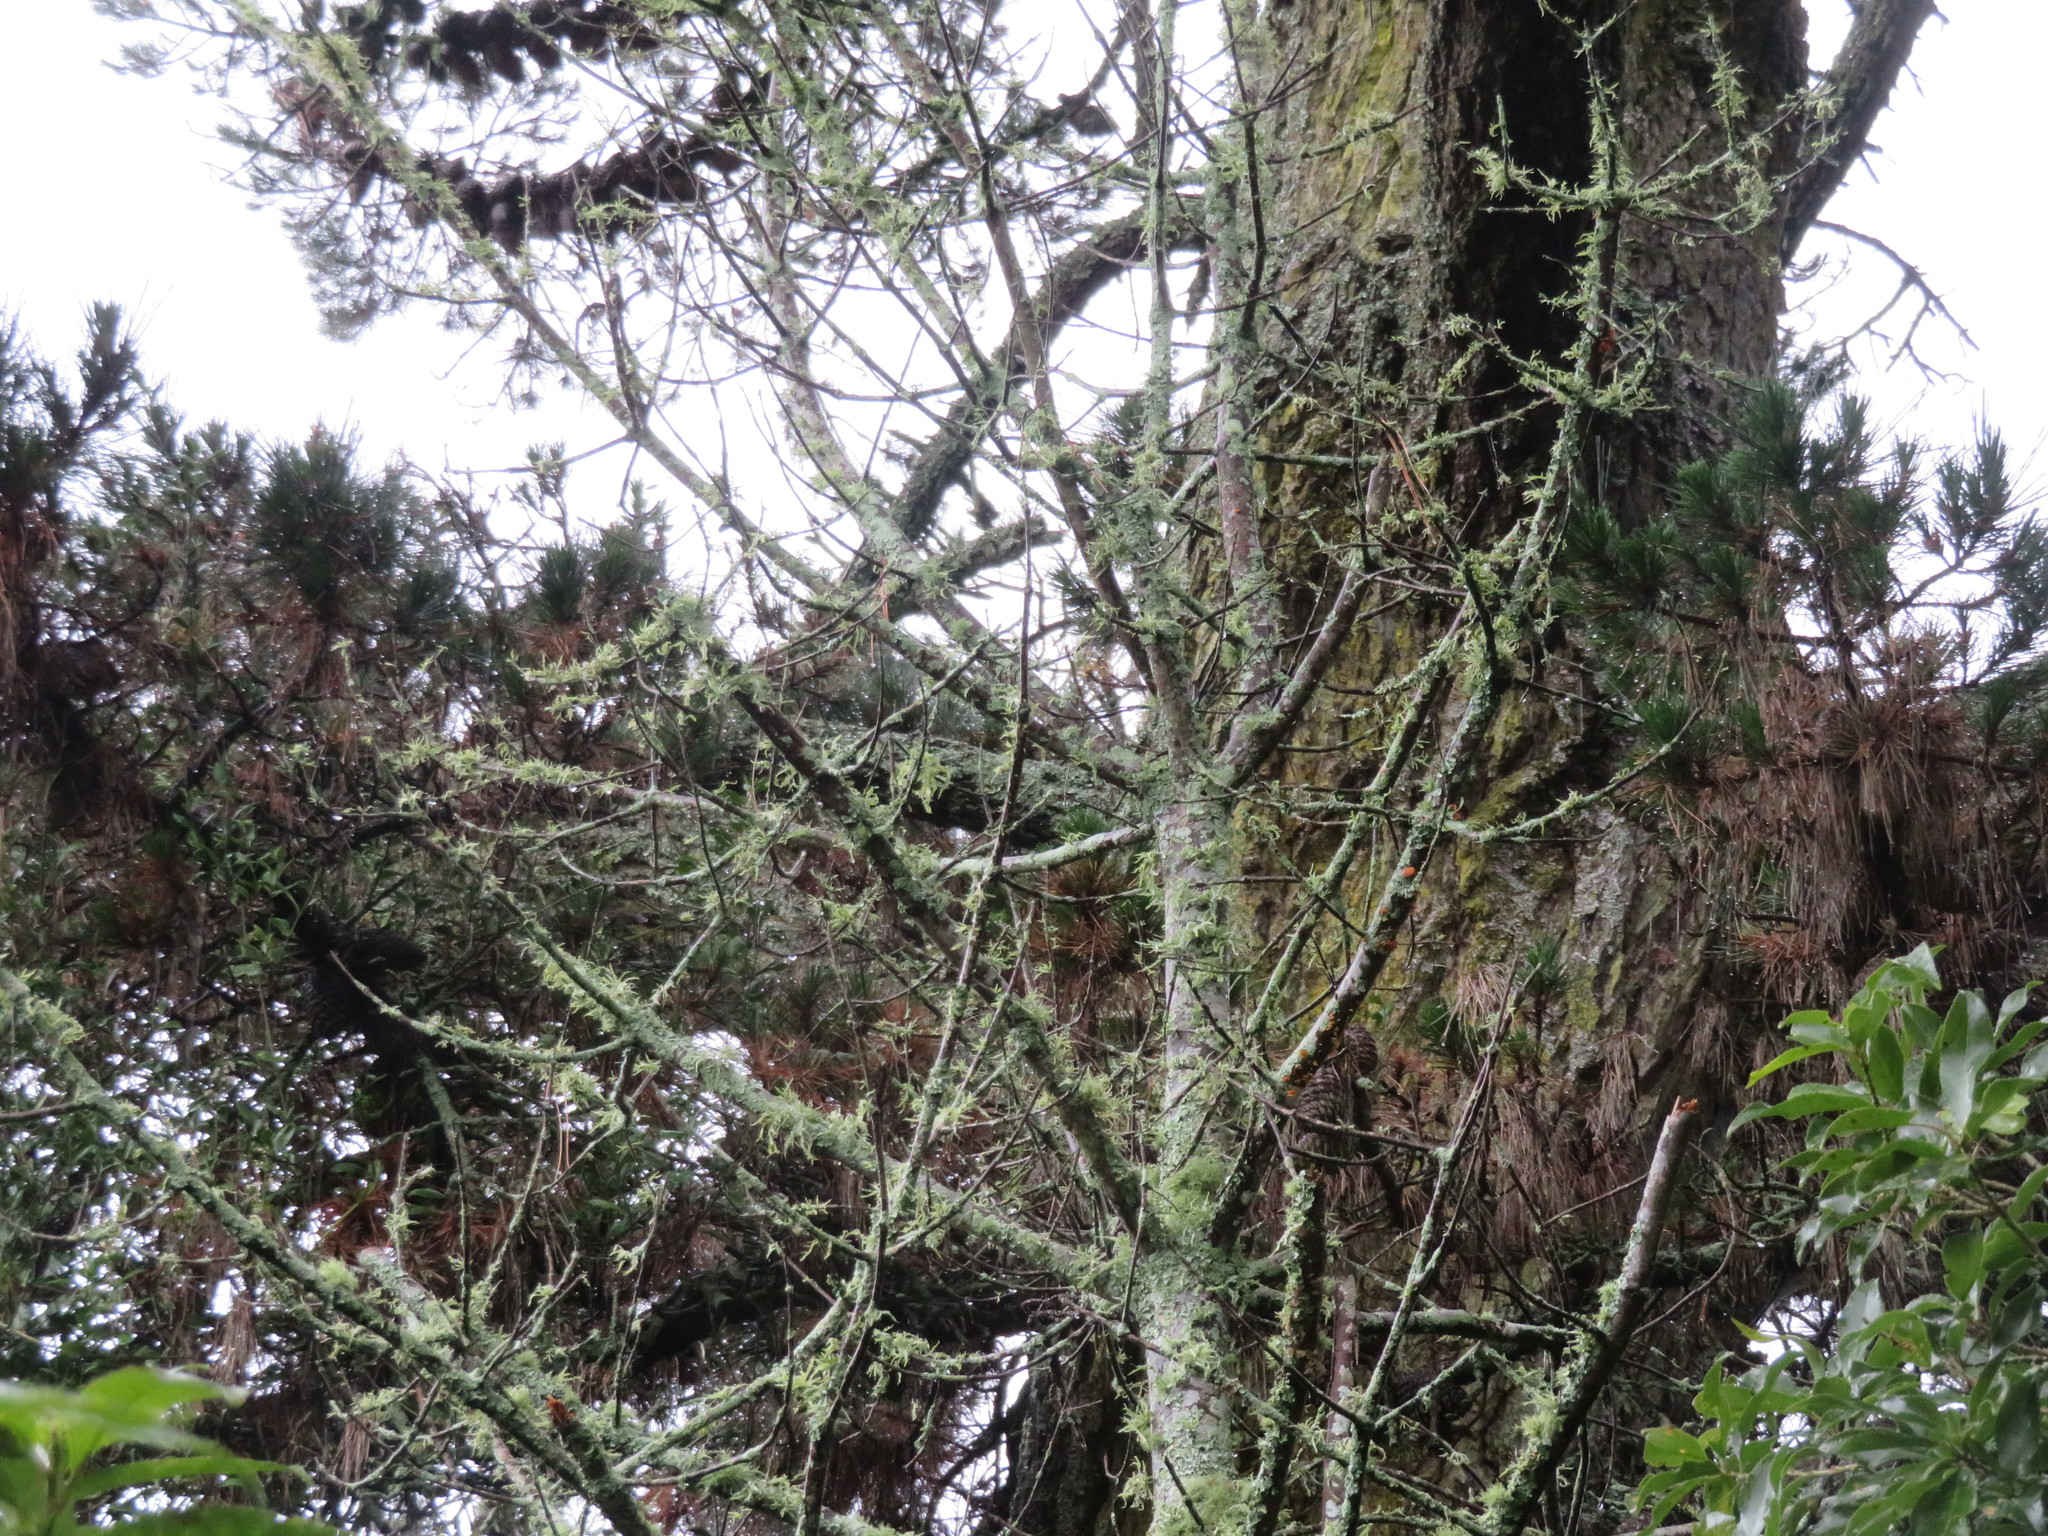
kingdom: Plantae
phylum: Tracheophyta
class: Pinopsida
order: Pinales
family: Phyllocladaceae
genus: Phyllocladus
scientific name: Phyllocladus trichomanoides
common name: Celery pine
